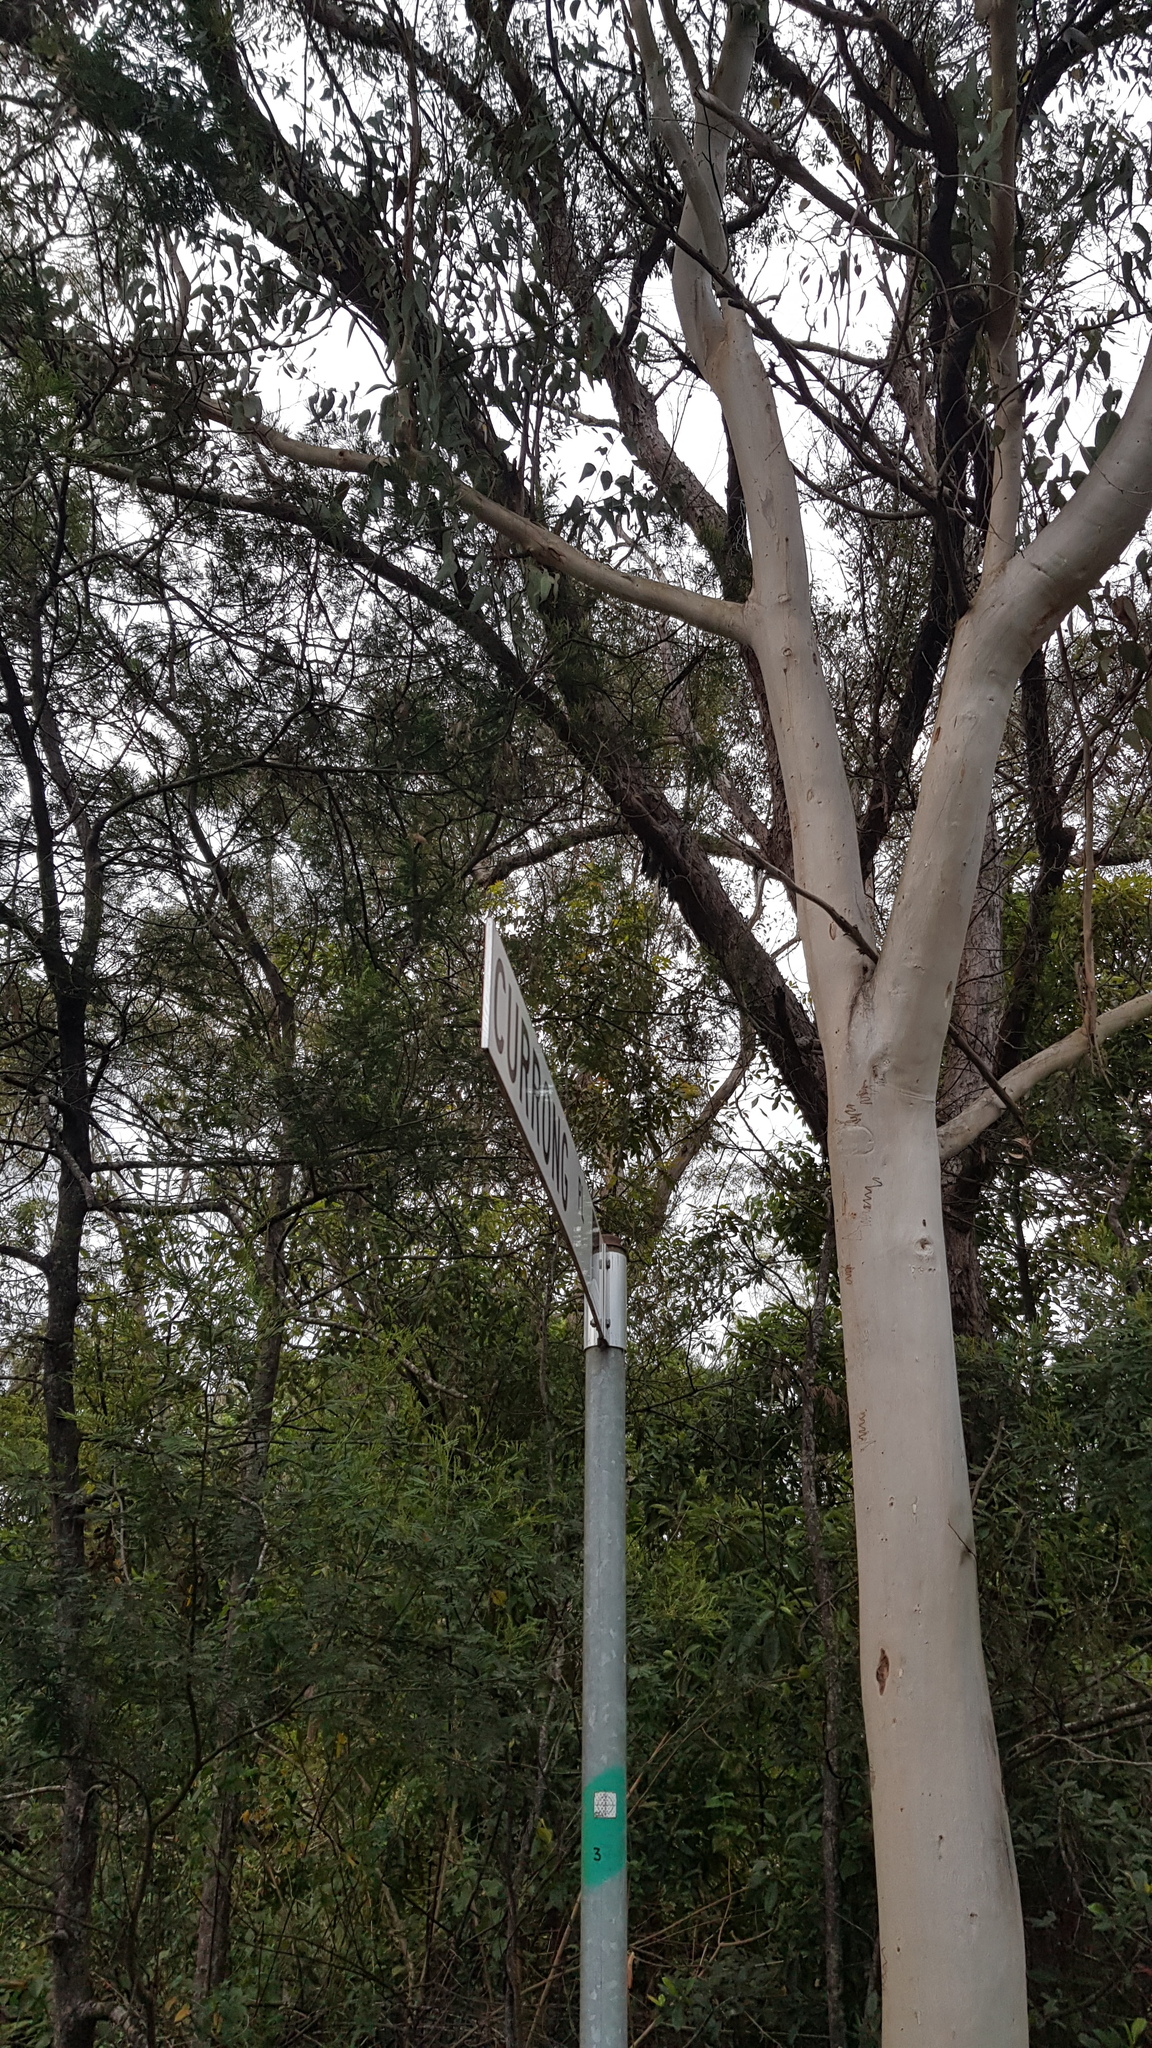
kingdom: Animalia
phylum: Chordata
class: Aves
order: Caprimulgiformes
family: Podargidae
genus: Podargus
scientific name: Podargus strigoides
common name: Tawny frogmouth
